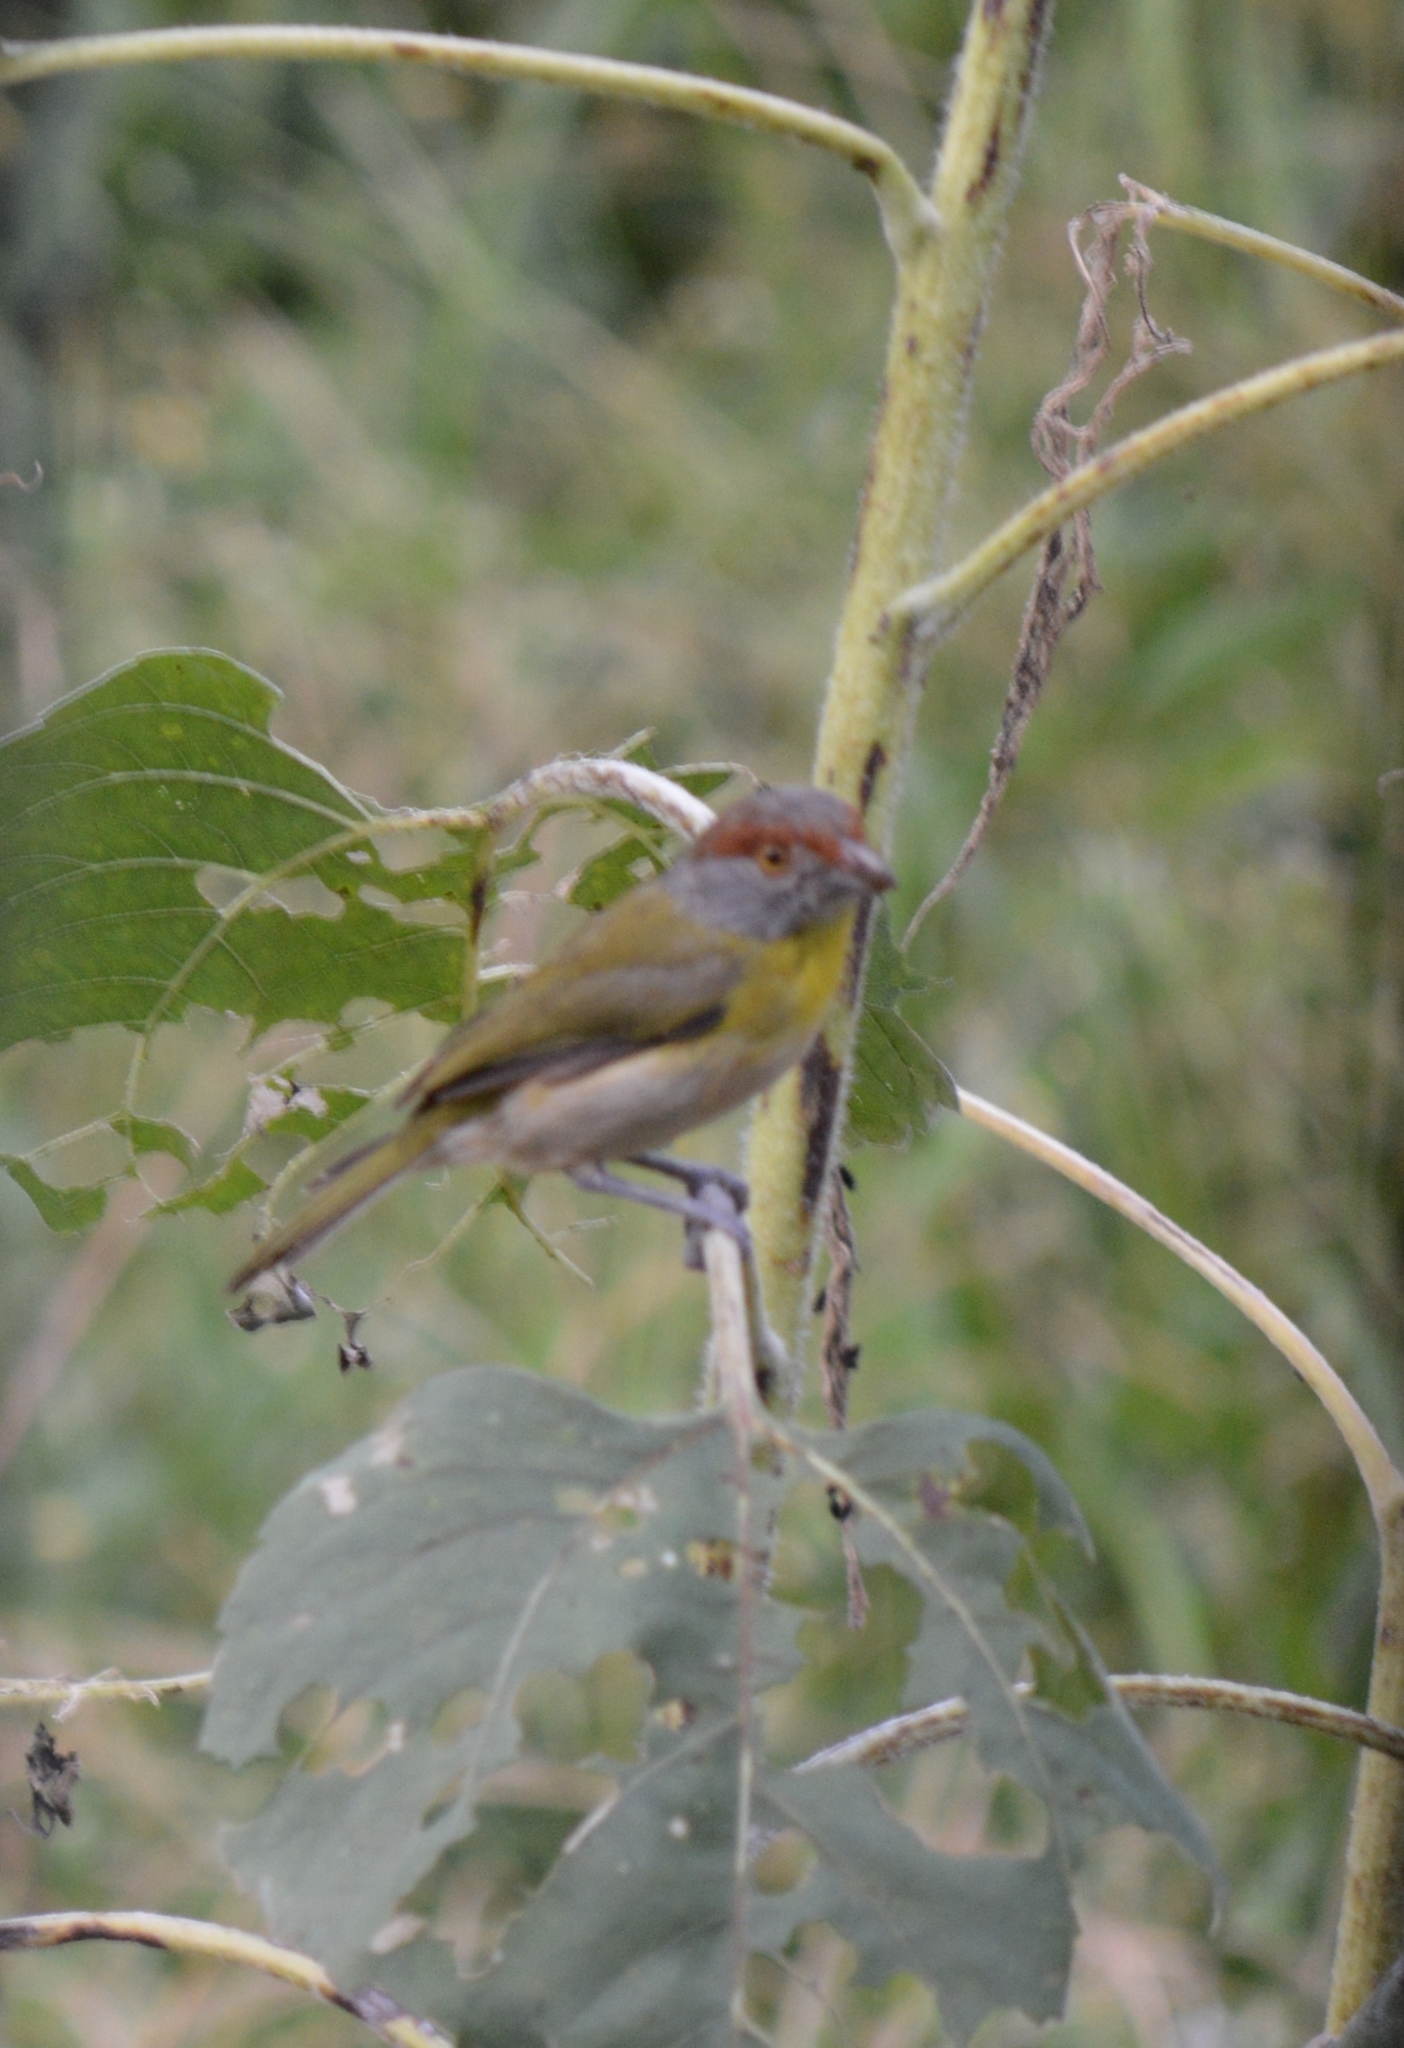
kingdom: Animalia
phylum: Chordata
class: Aves
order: Passeriformes
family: Vireonidae
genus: Cyclarhis
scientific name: Cyclarhis gujanensis
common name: Rufous-browed peppershrike
